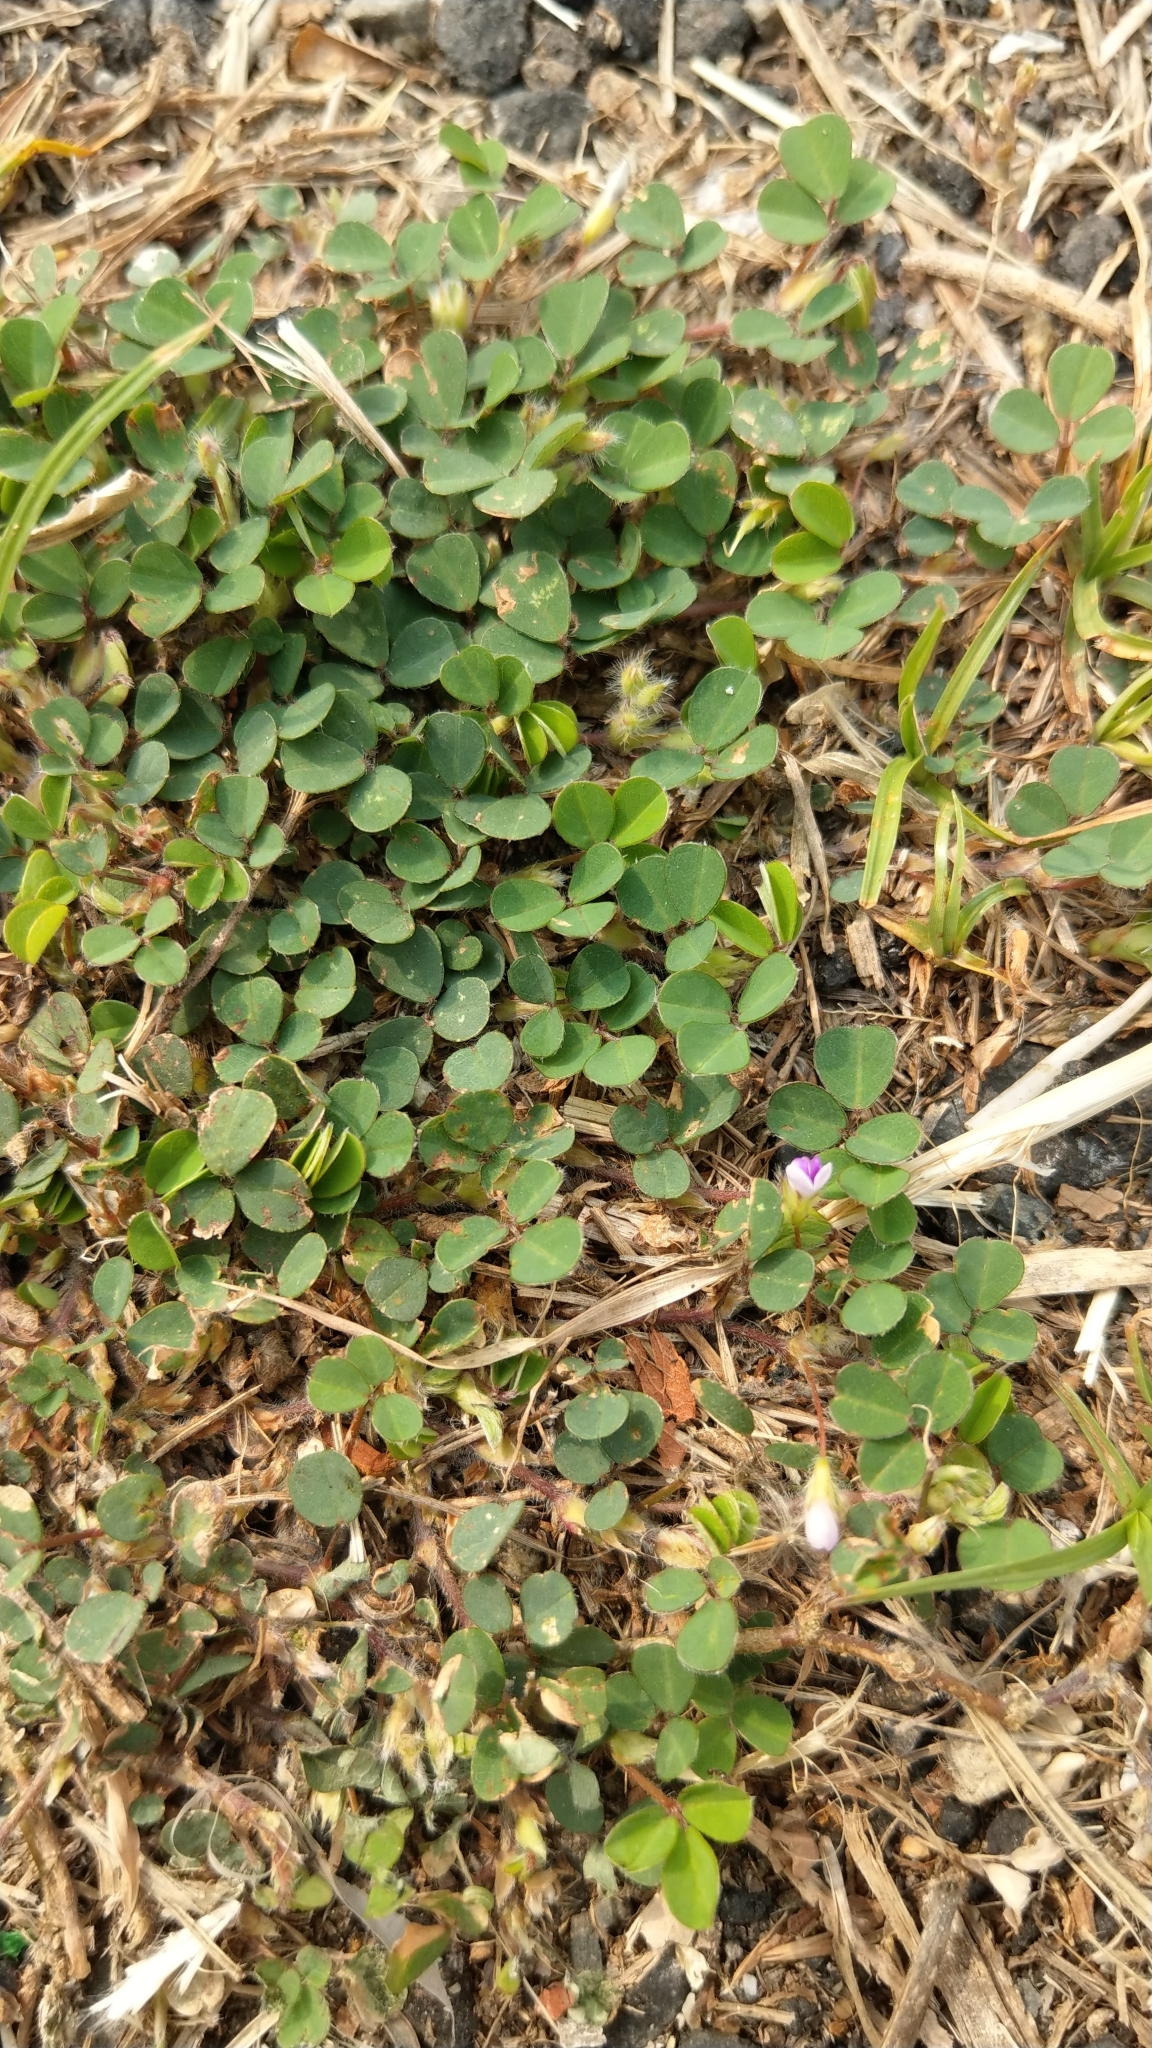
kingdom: Plantae
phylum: Tracheophyta
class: Magnoliopsida
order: Fabales
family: Fabaceae
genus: Grona
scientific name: Grona triflora
